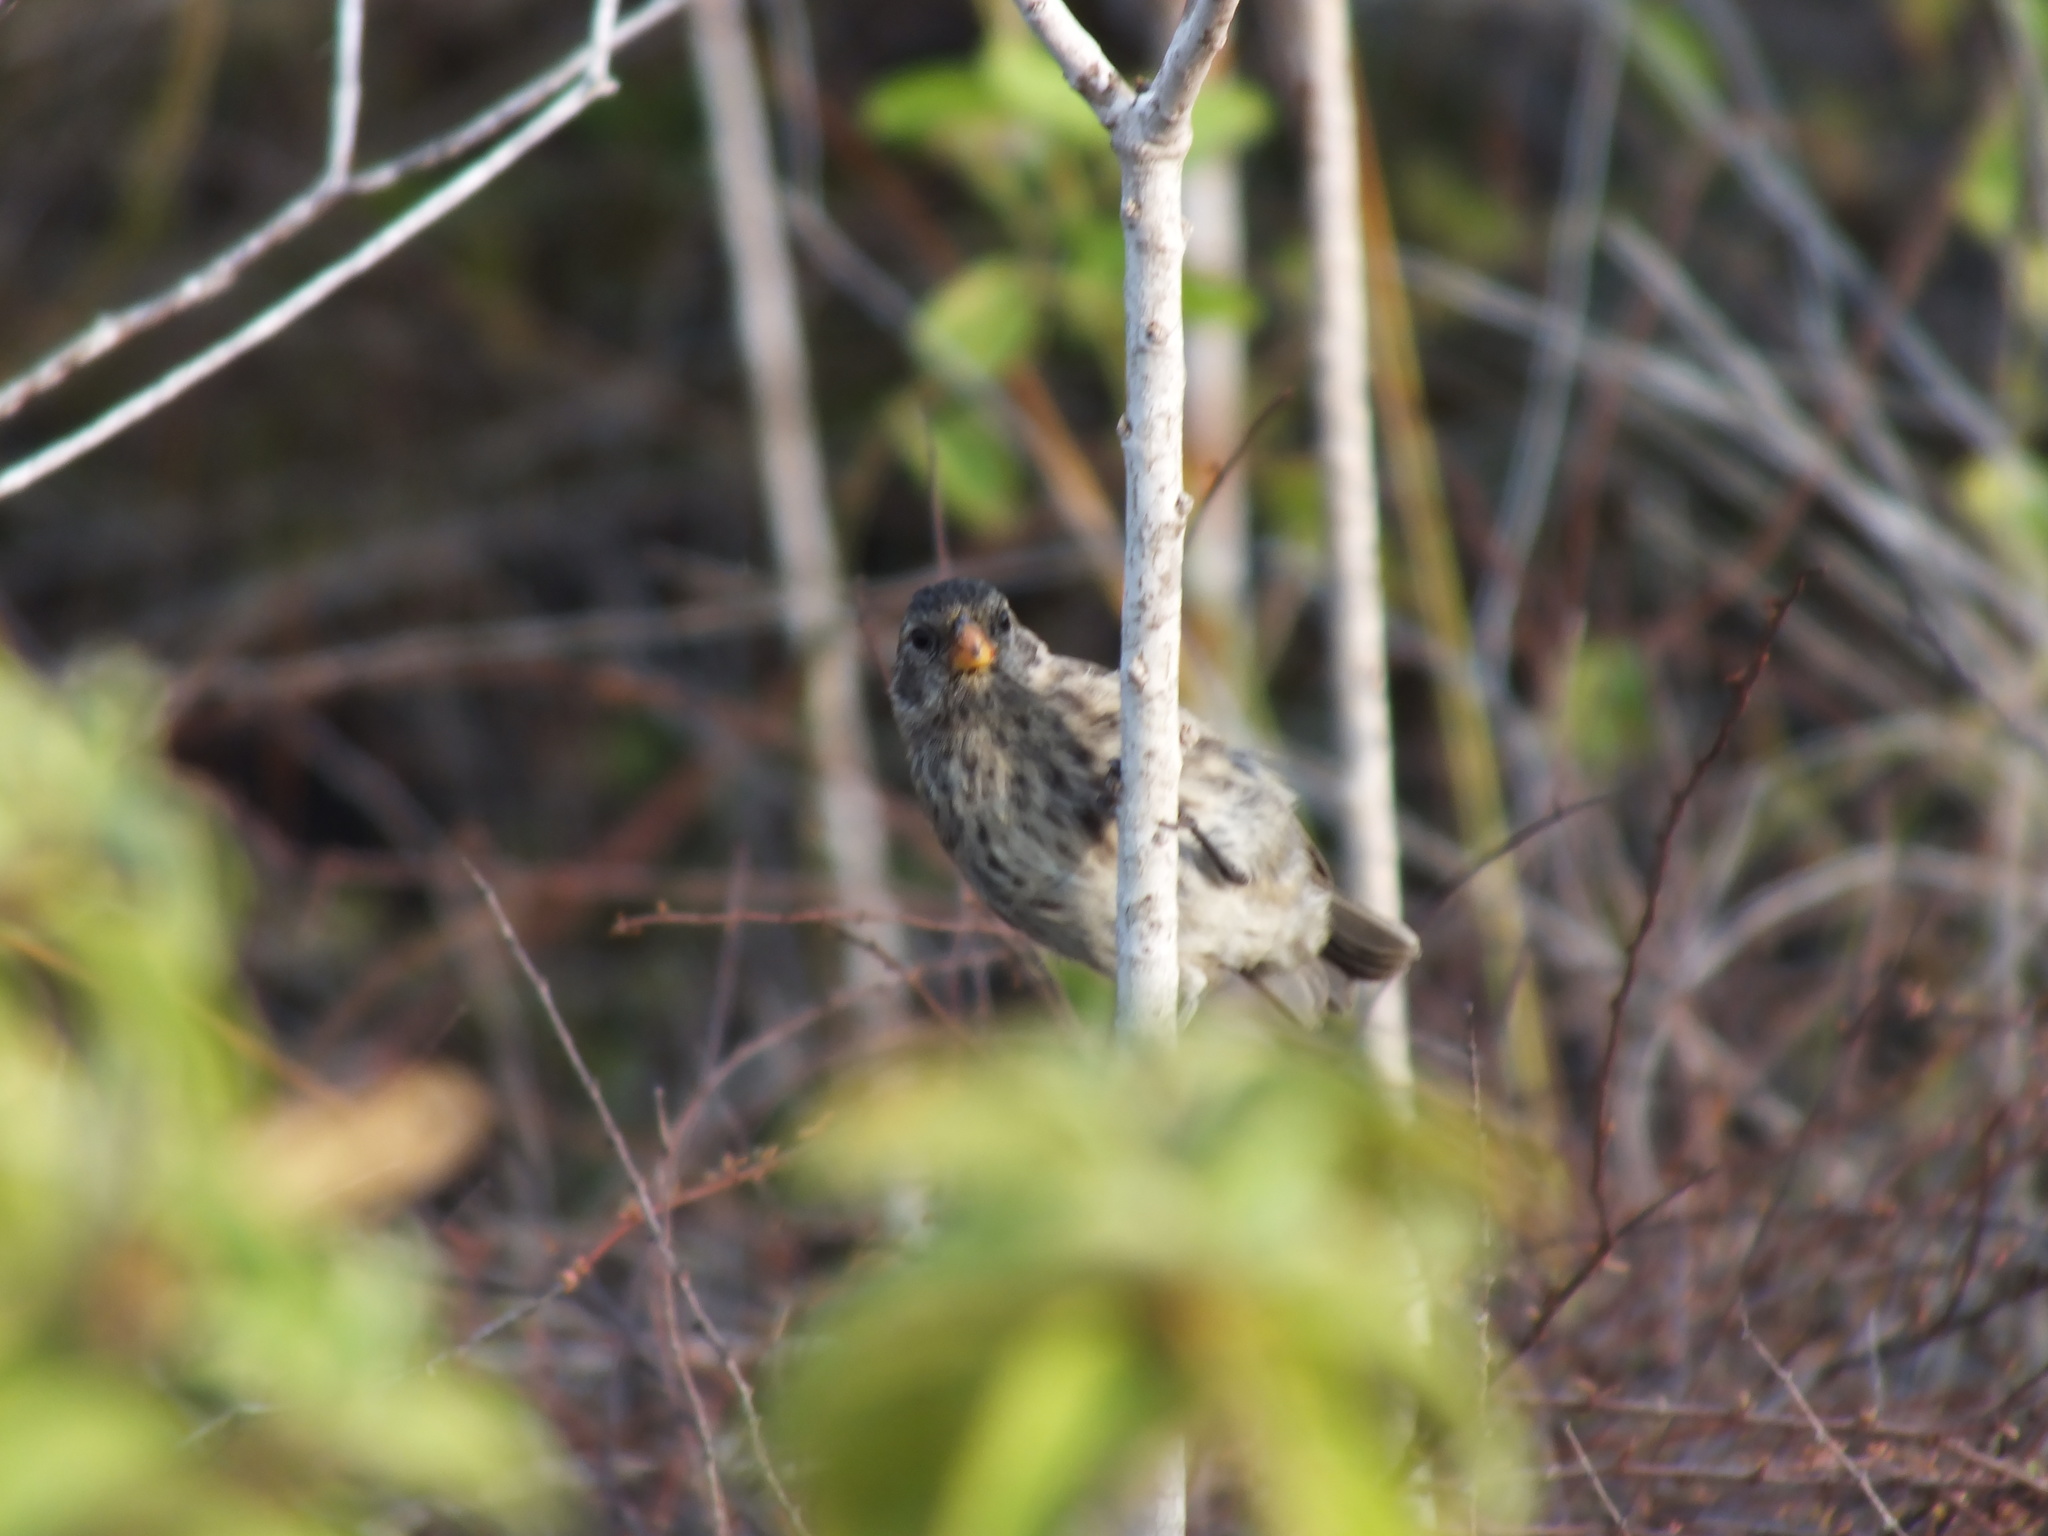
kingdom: Animalia
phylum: Chordata
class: Aves
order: Passeriformes
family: Thraupidae
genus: Geospiza
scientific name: Geospiza fuliginosa
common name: Small ground finch
